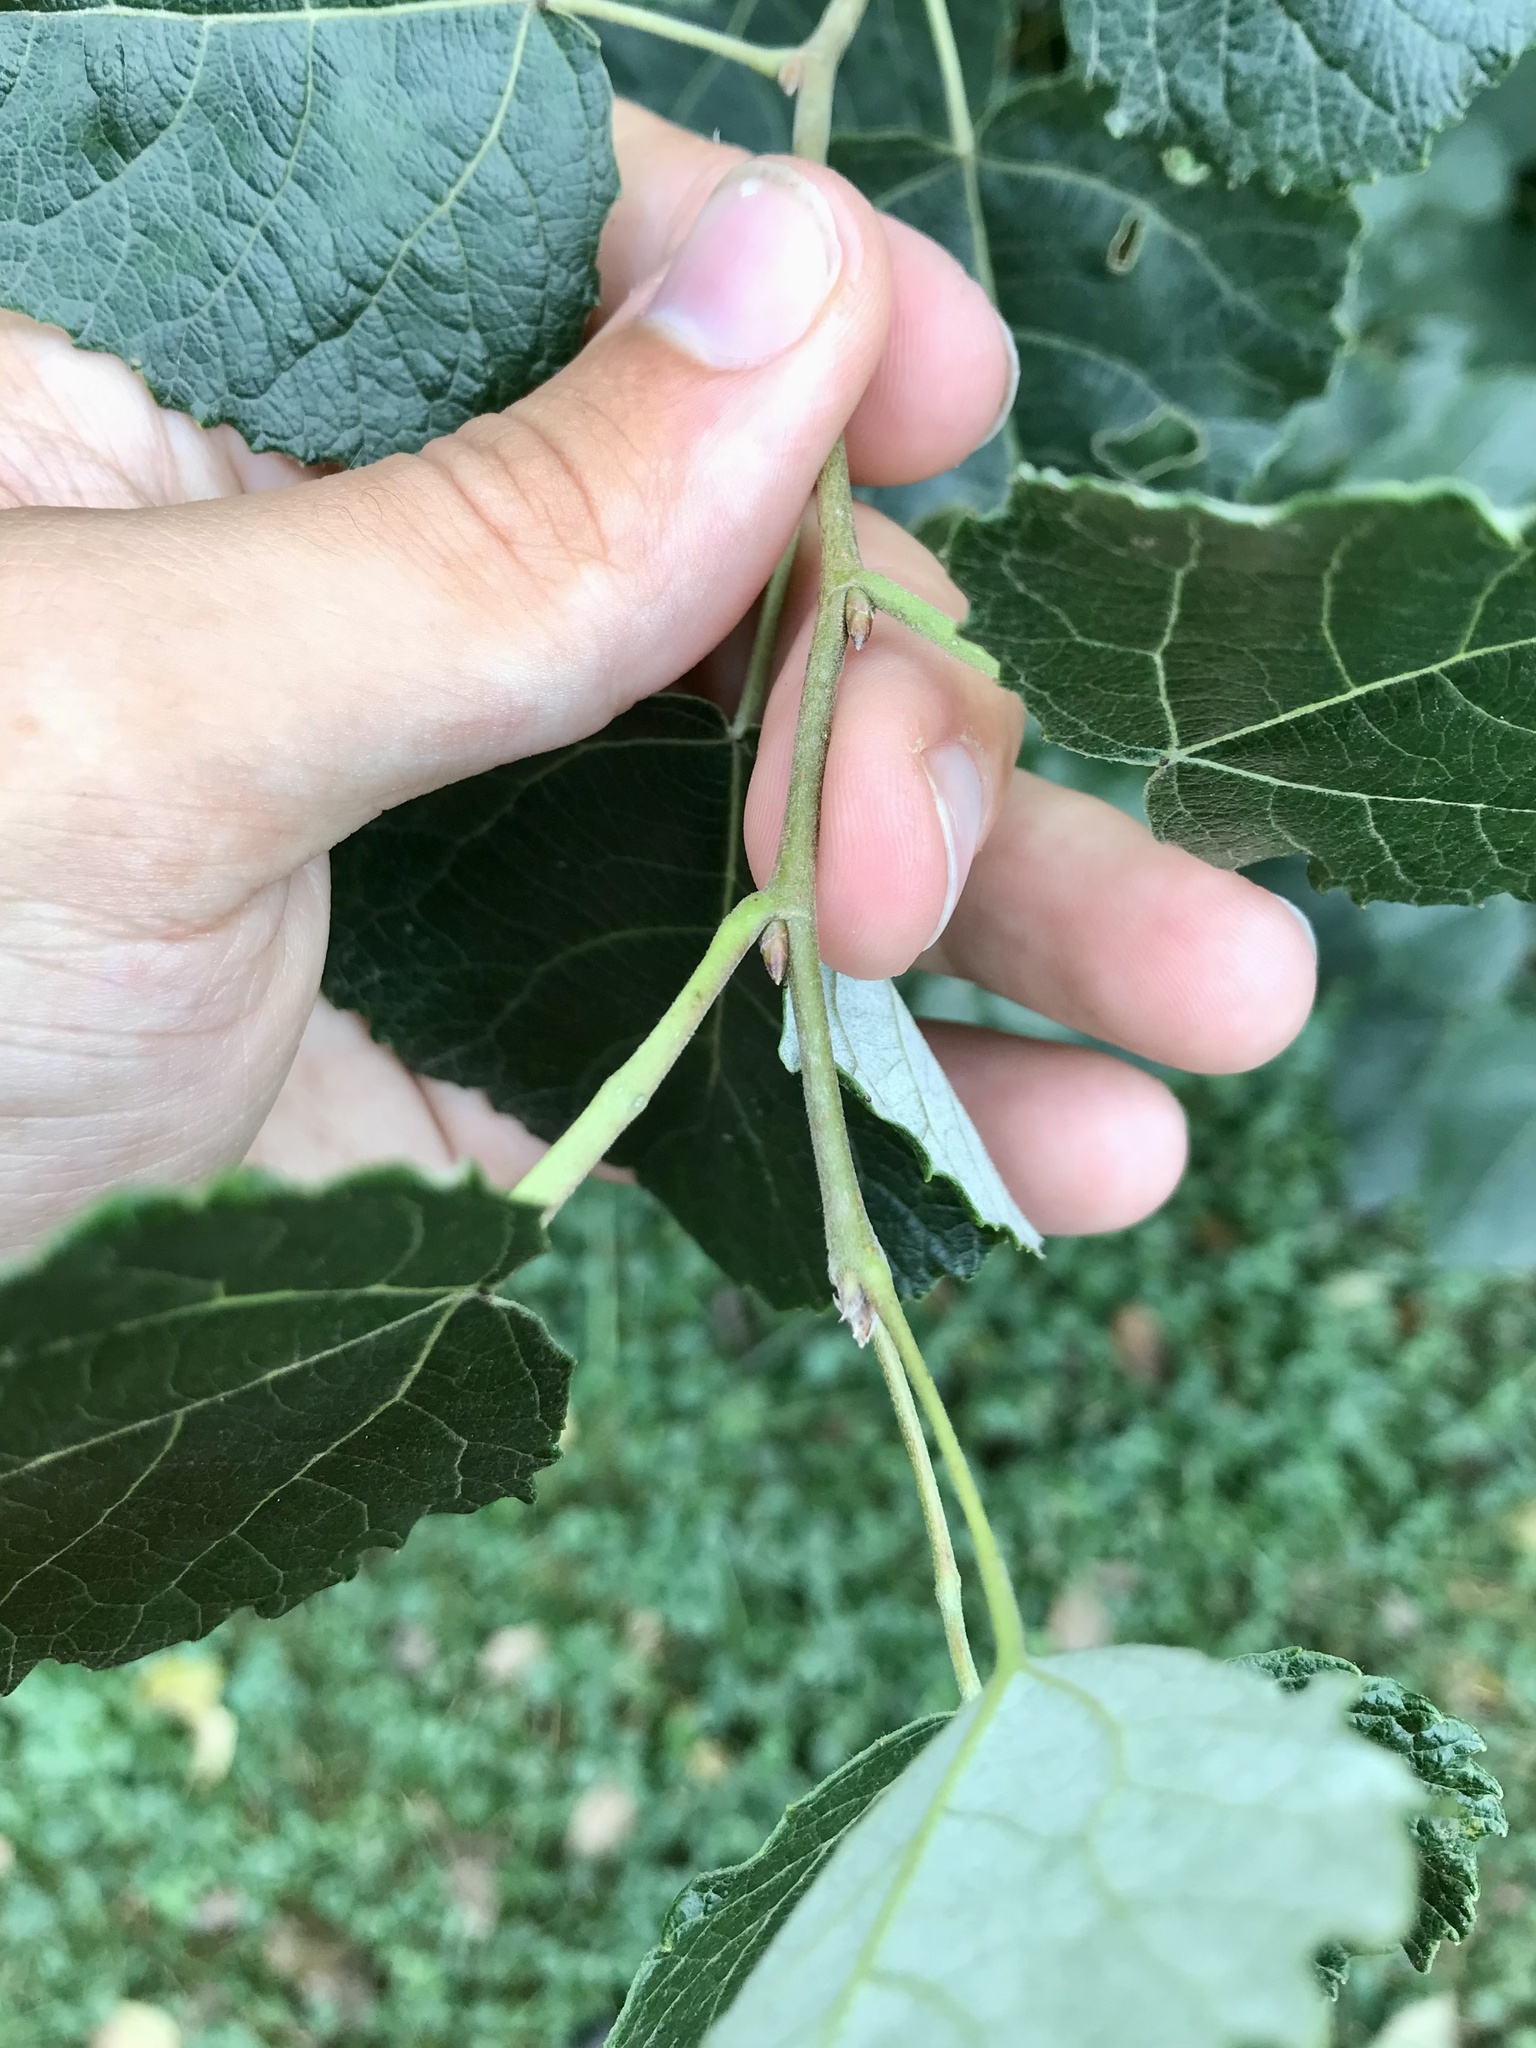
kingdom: Plantae
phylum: Tracheophyta
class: Magnoliopsida
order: Malpighiales
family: Salicaceae
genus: Populus
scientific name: Populus canescens
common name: Gray poplar
